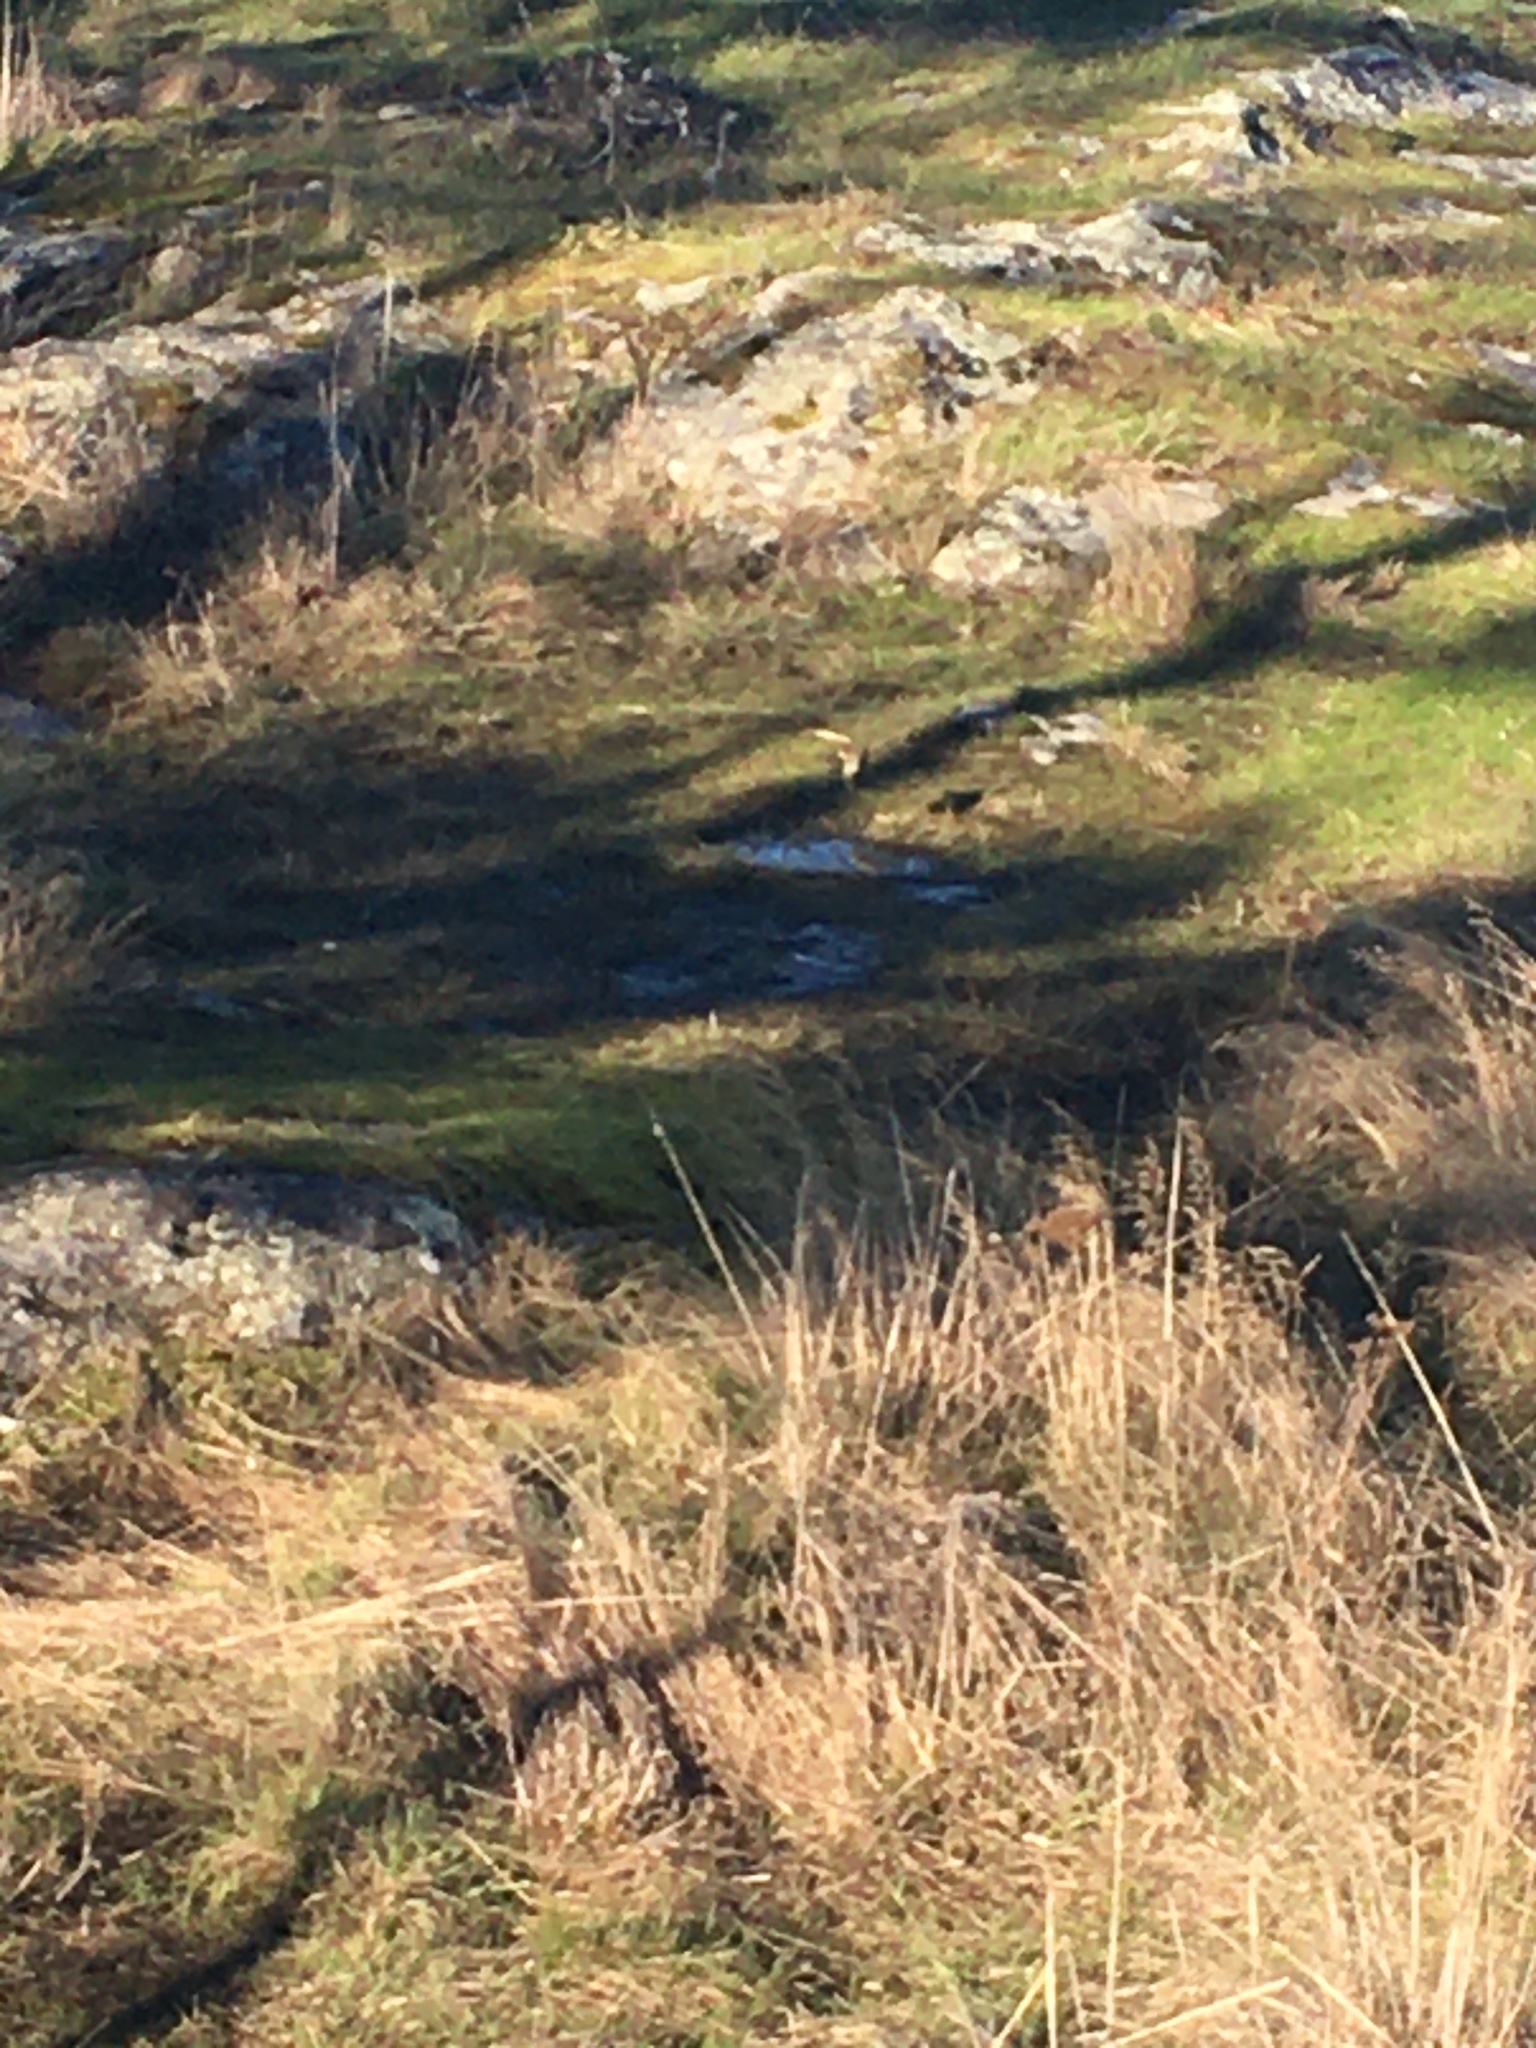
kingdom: Animalia
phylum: Chordata
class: Aves
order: Passeriformes
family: Fringillidae
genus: Spinus
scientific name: Spinus pinus
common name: Pine siskin
